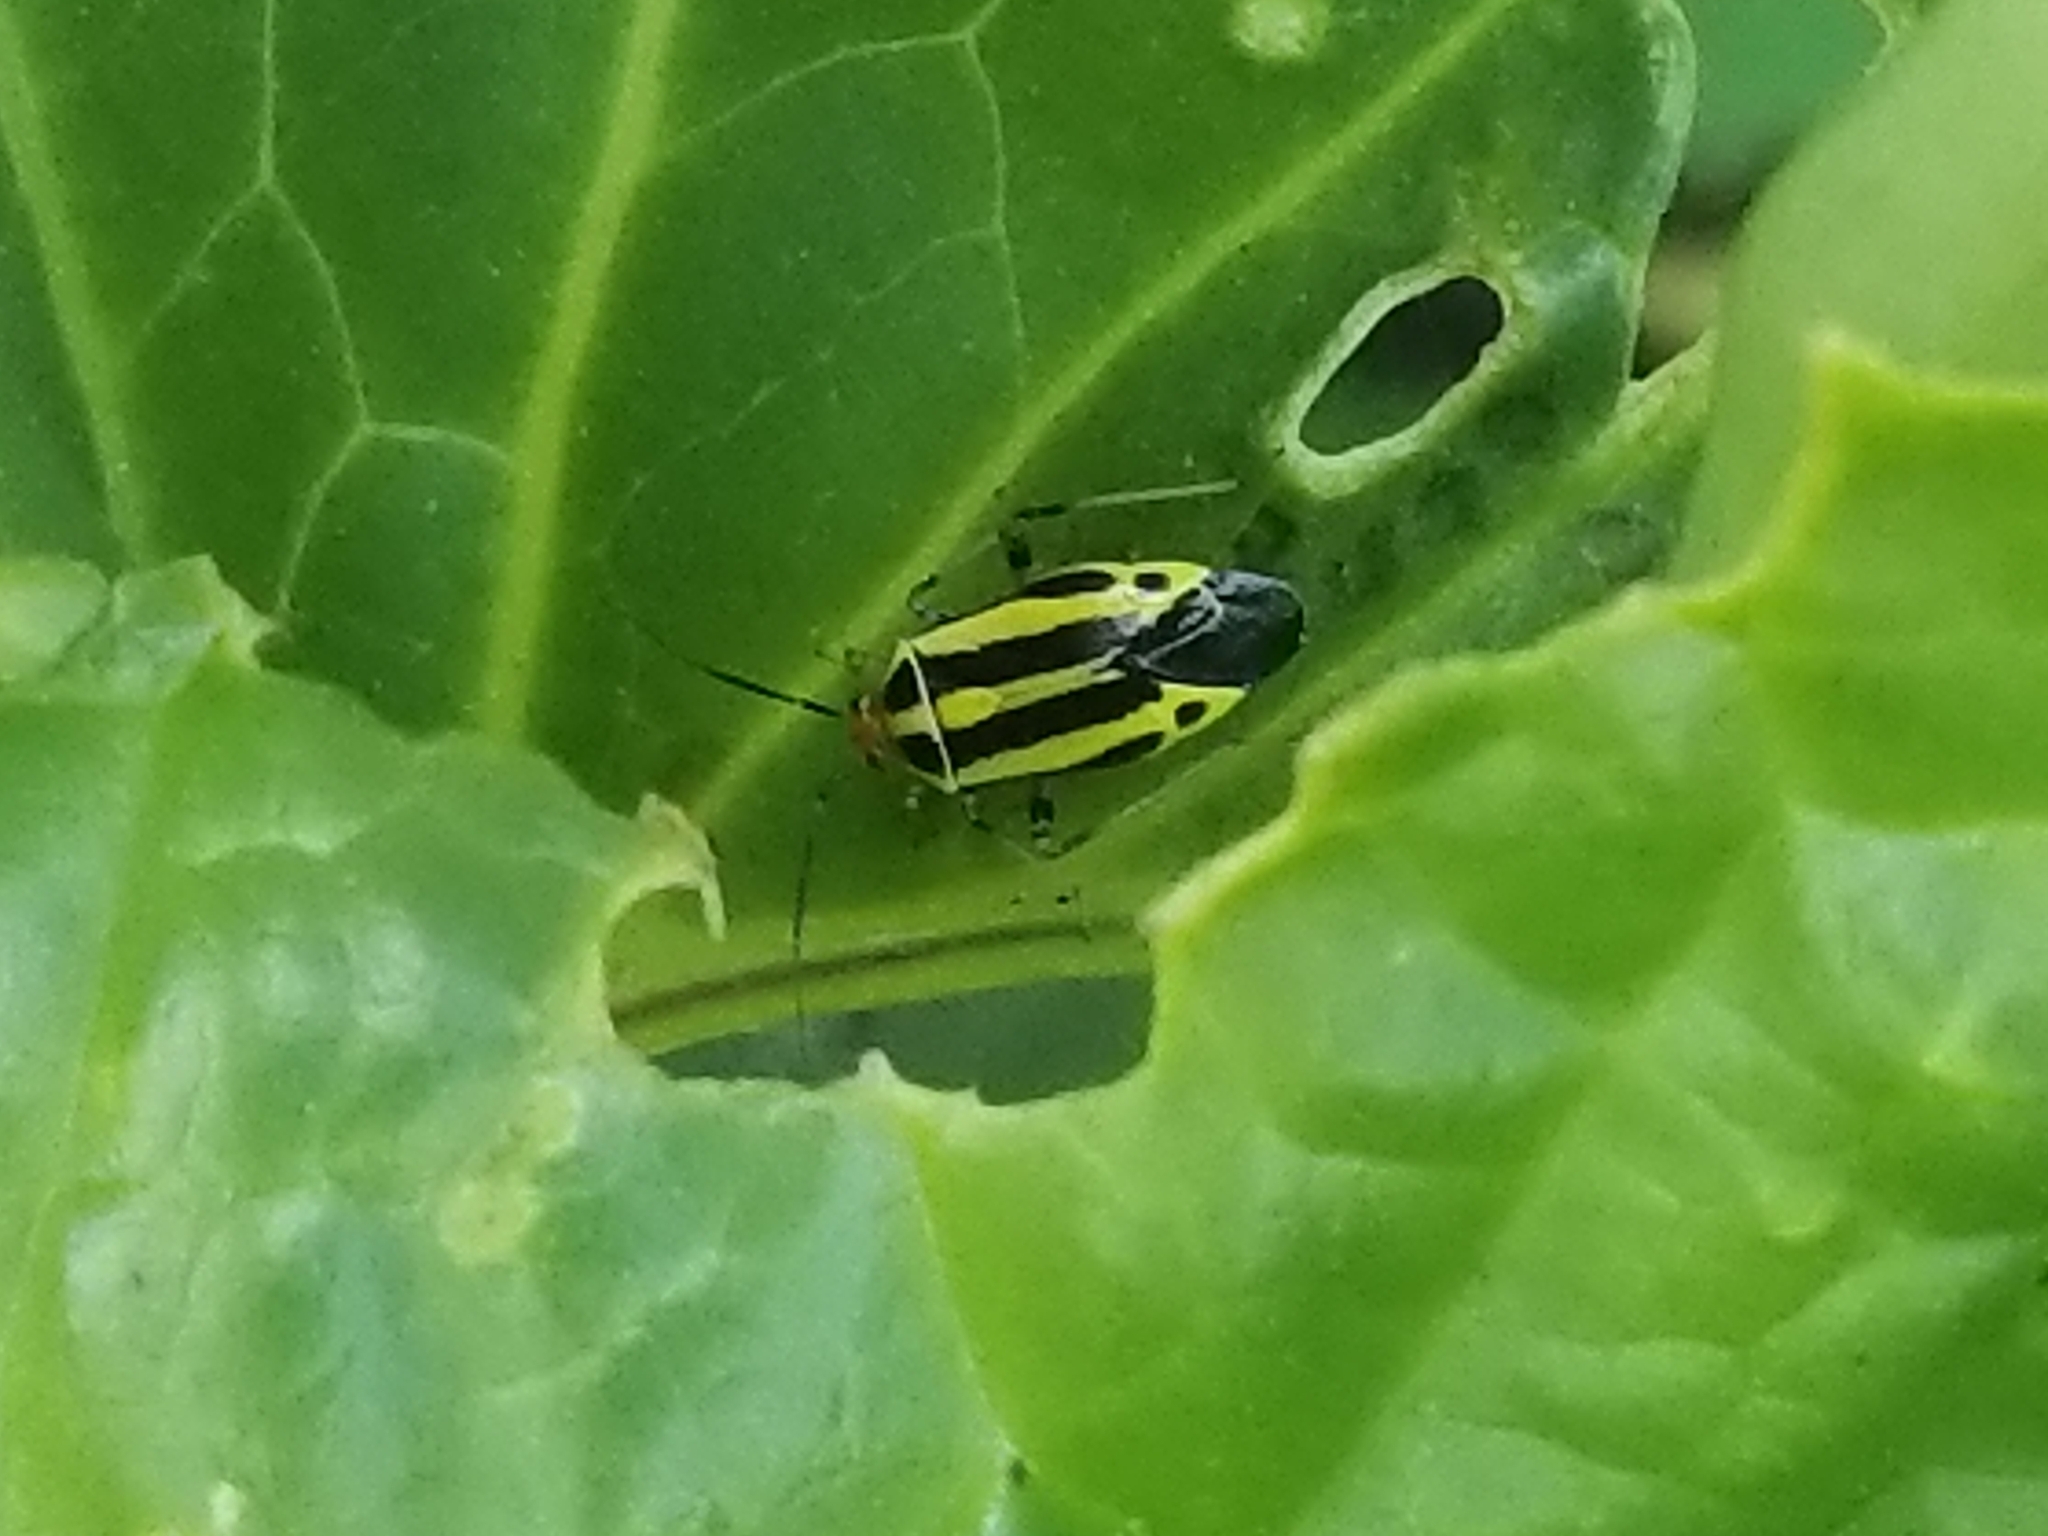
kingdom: Animalia
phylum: Arthropoda
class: Insecta
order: Hemiptera
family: Miridae
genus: Poecilocapsus
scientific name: Poecilocapsus lineatus
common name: Four-lined plant bug
